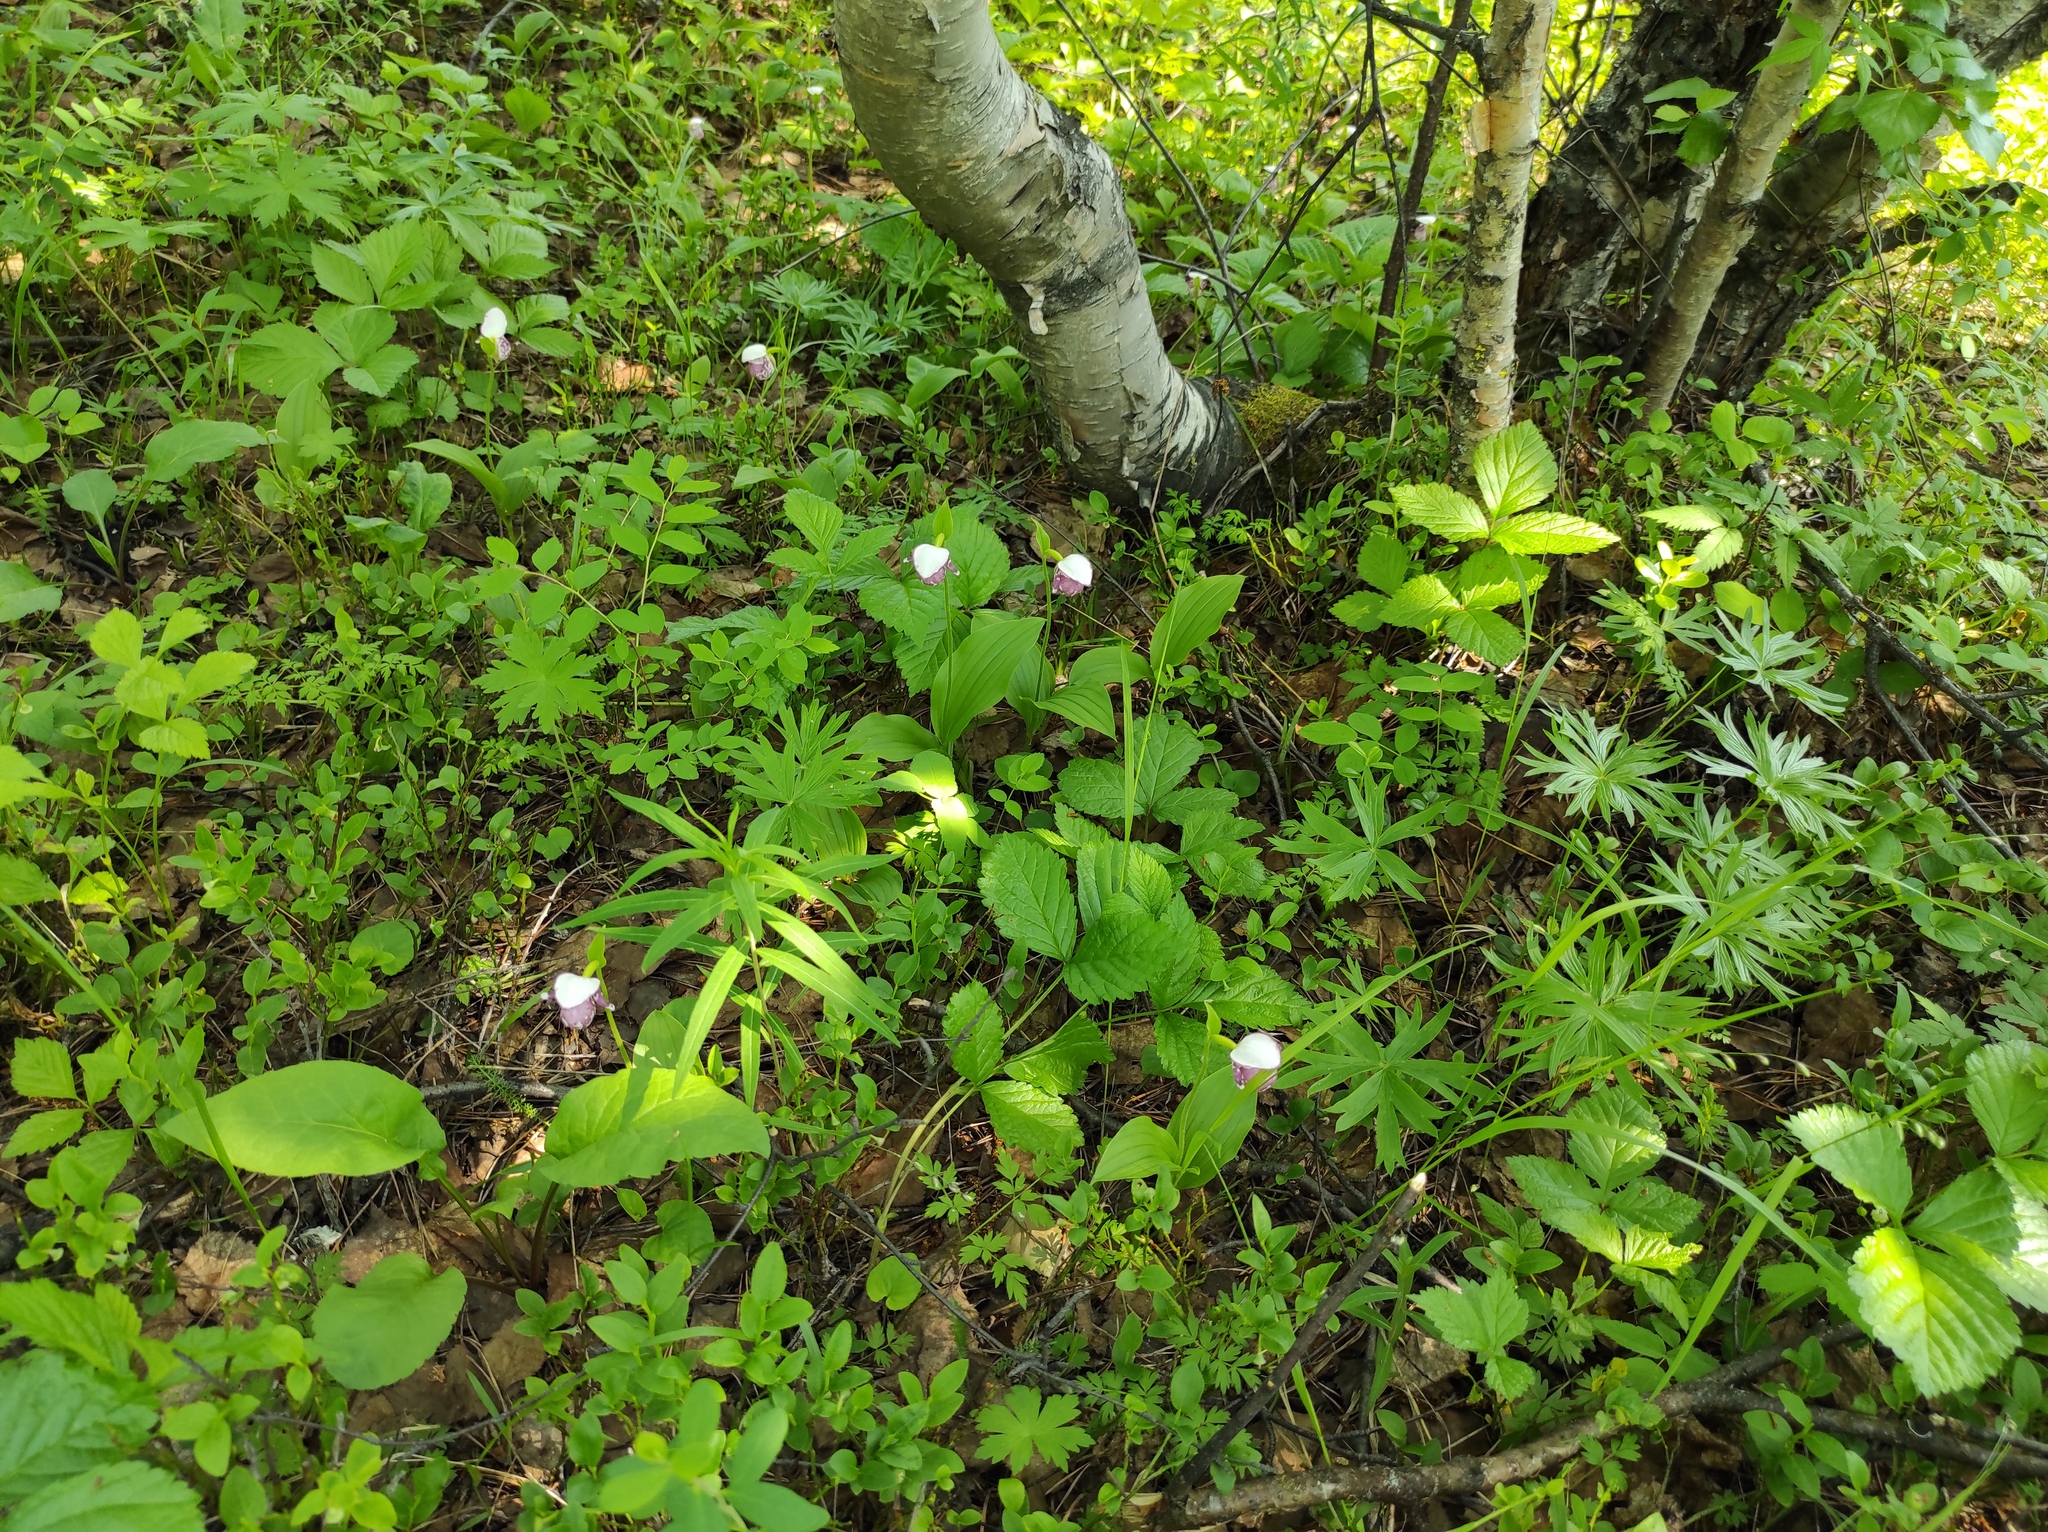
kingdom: Plantae
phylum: Tracheophyta
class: Liliopsida
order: Asparagales
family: Orchidaceae
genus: Cypripedium
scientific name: Cypripedium guttatum
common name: Pink lady slipper
